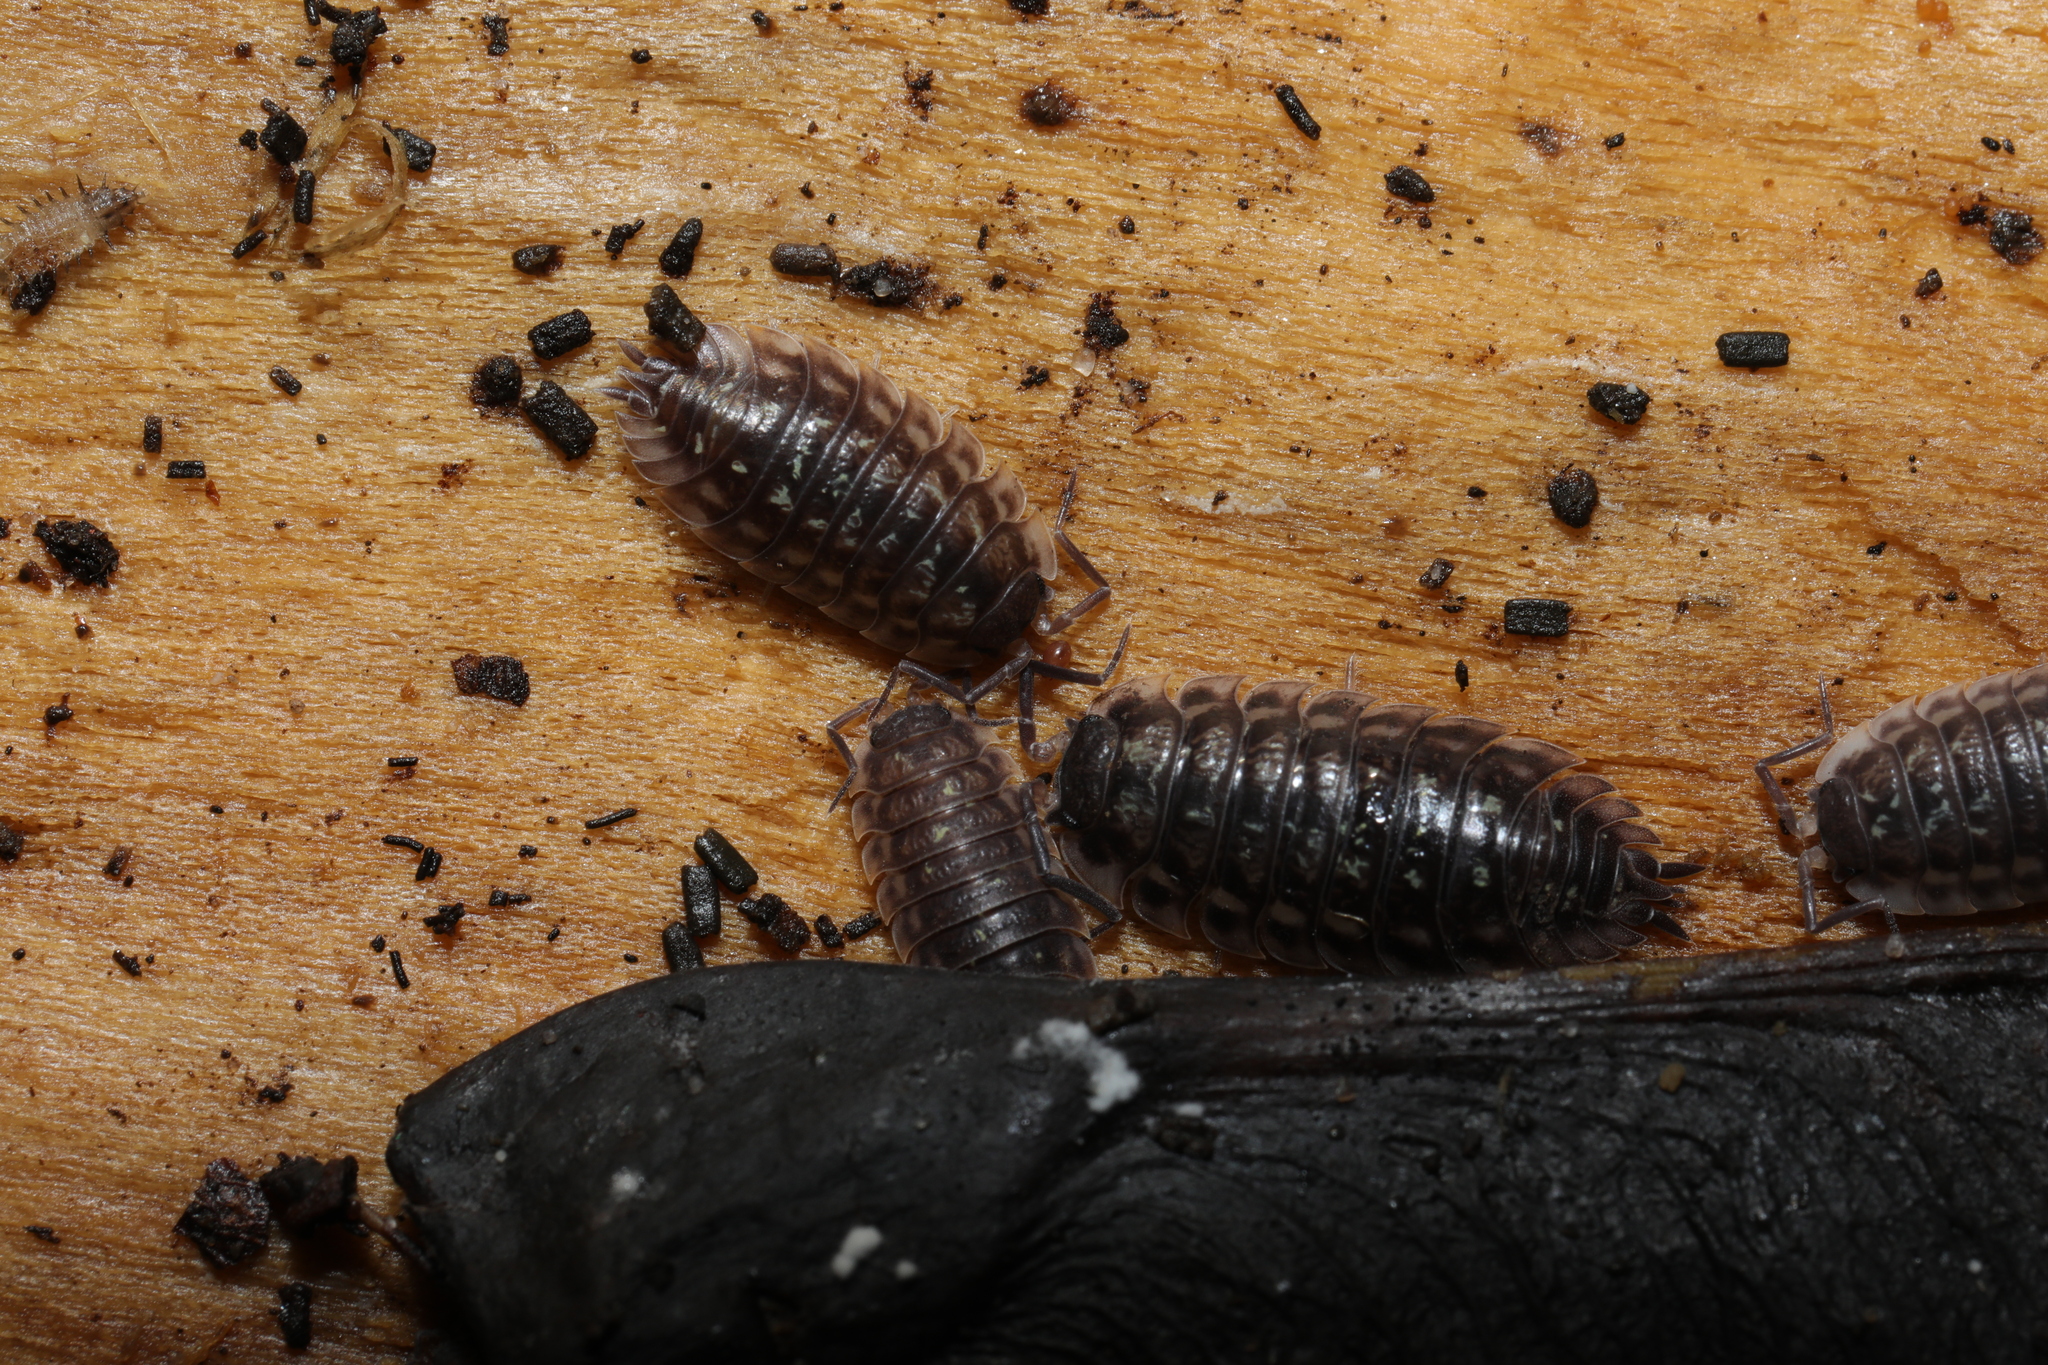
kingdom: Animalia
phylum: Arthropoda
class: Malacostraca
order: Isopoda
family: Oniscidae
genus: Oniscus
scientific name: Oniscus asellus
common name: Common shiny woodlouse
